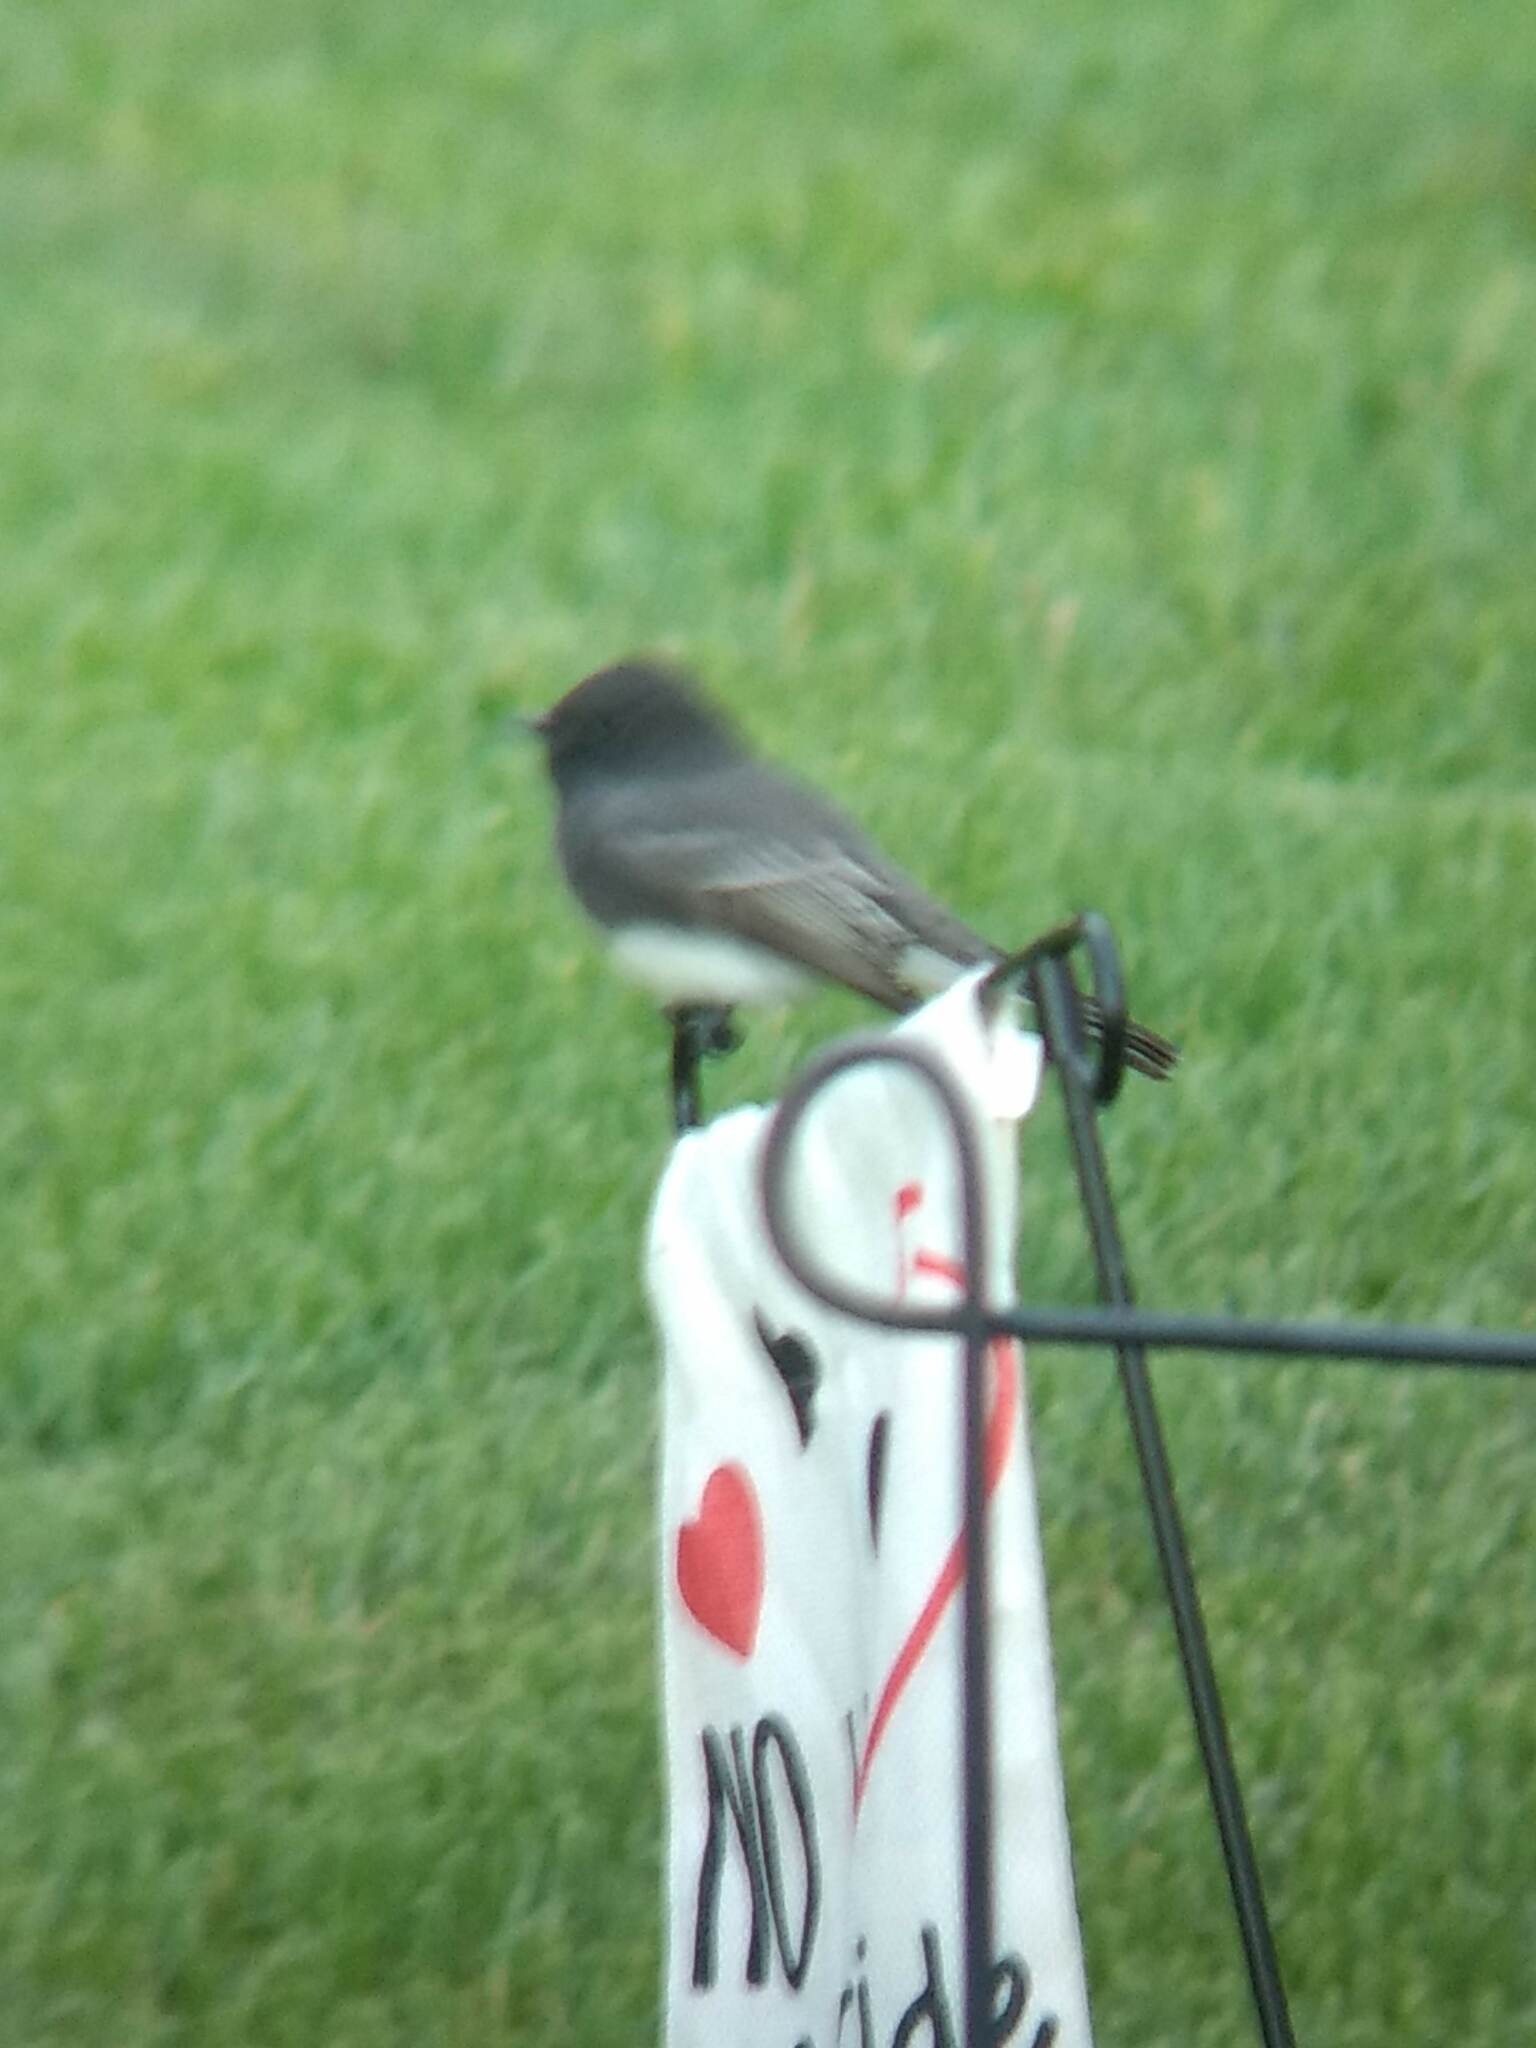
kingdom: Animalia
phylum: Chordata
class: Aves
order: Passeriformes
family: Tyrannidae
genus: Sayornis
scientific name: Sayornis nigricans
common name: Black phoebe
